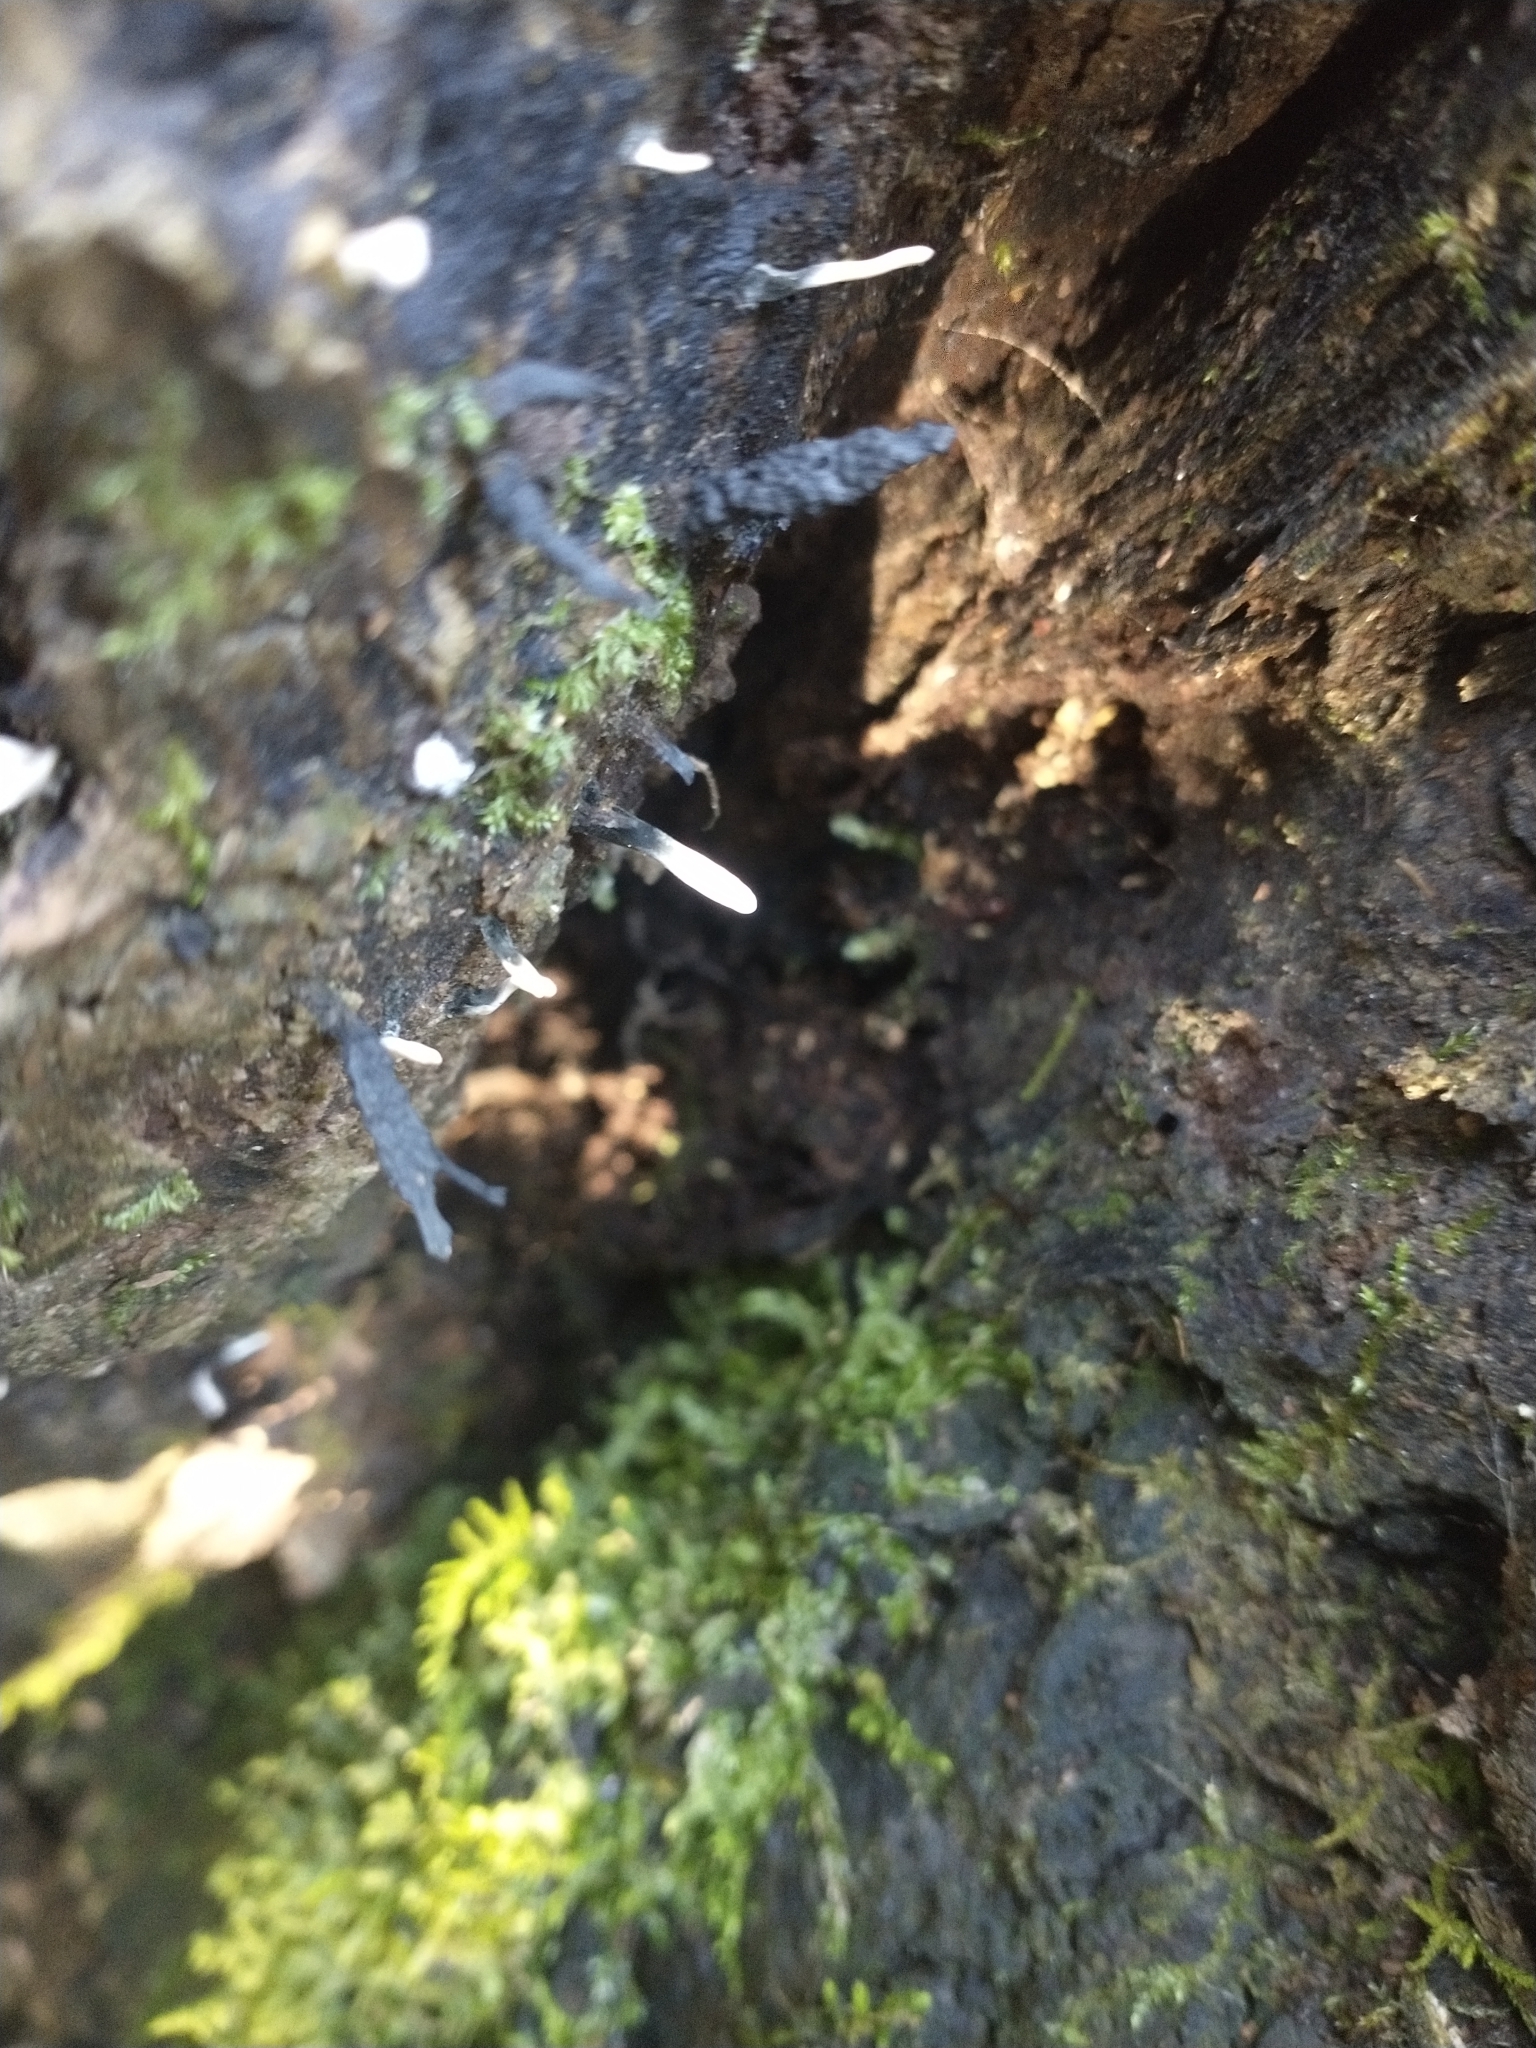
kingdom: Fungi
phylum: Ascomycota
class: Sordariomycetes
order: Xylariales
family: Xylariaceae
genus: Xylaria
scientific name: Xylaria hypoxylon
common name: Candle-snuff fungus
